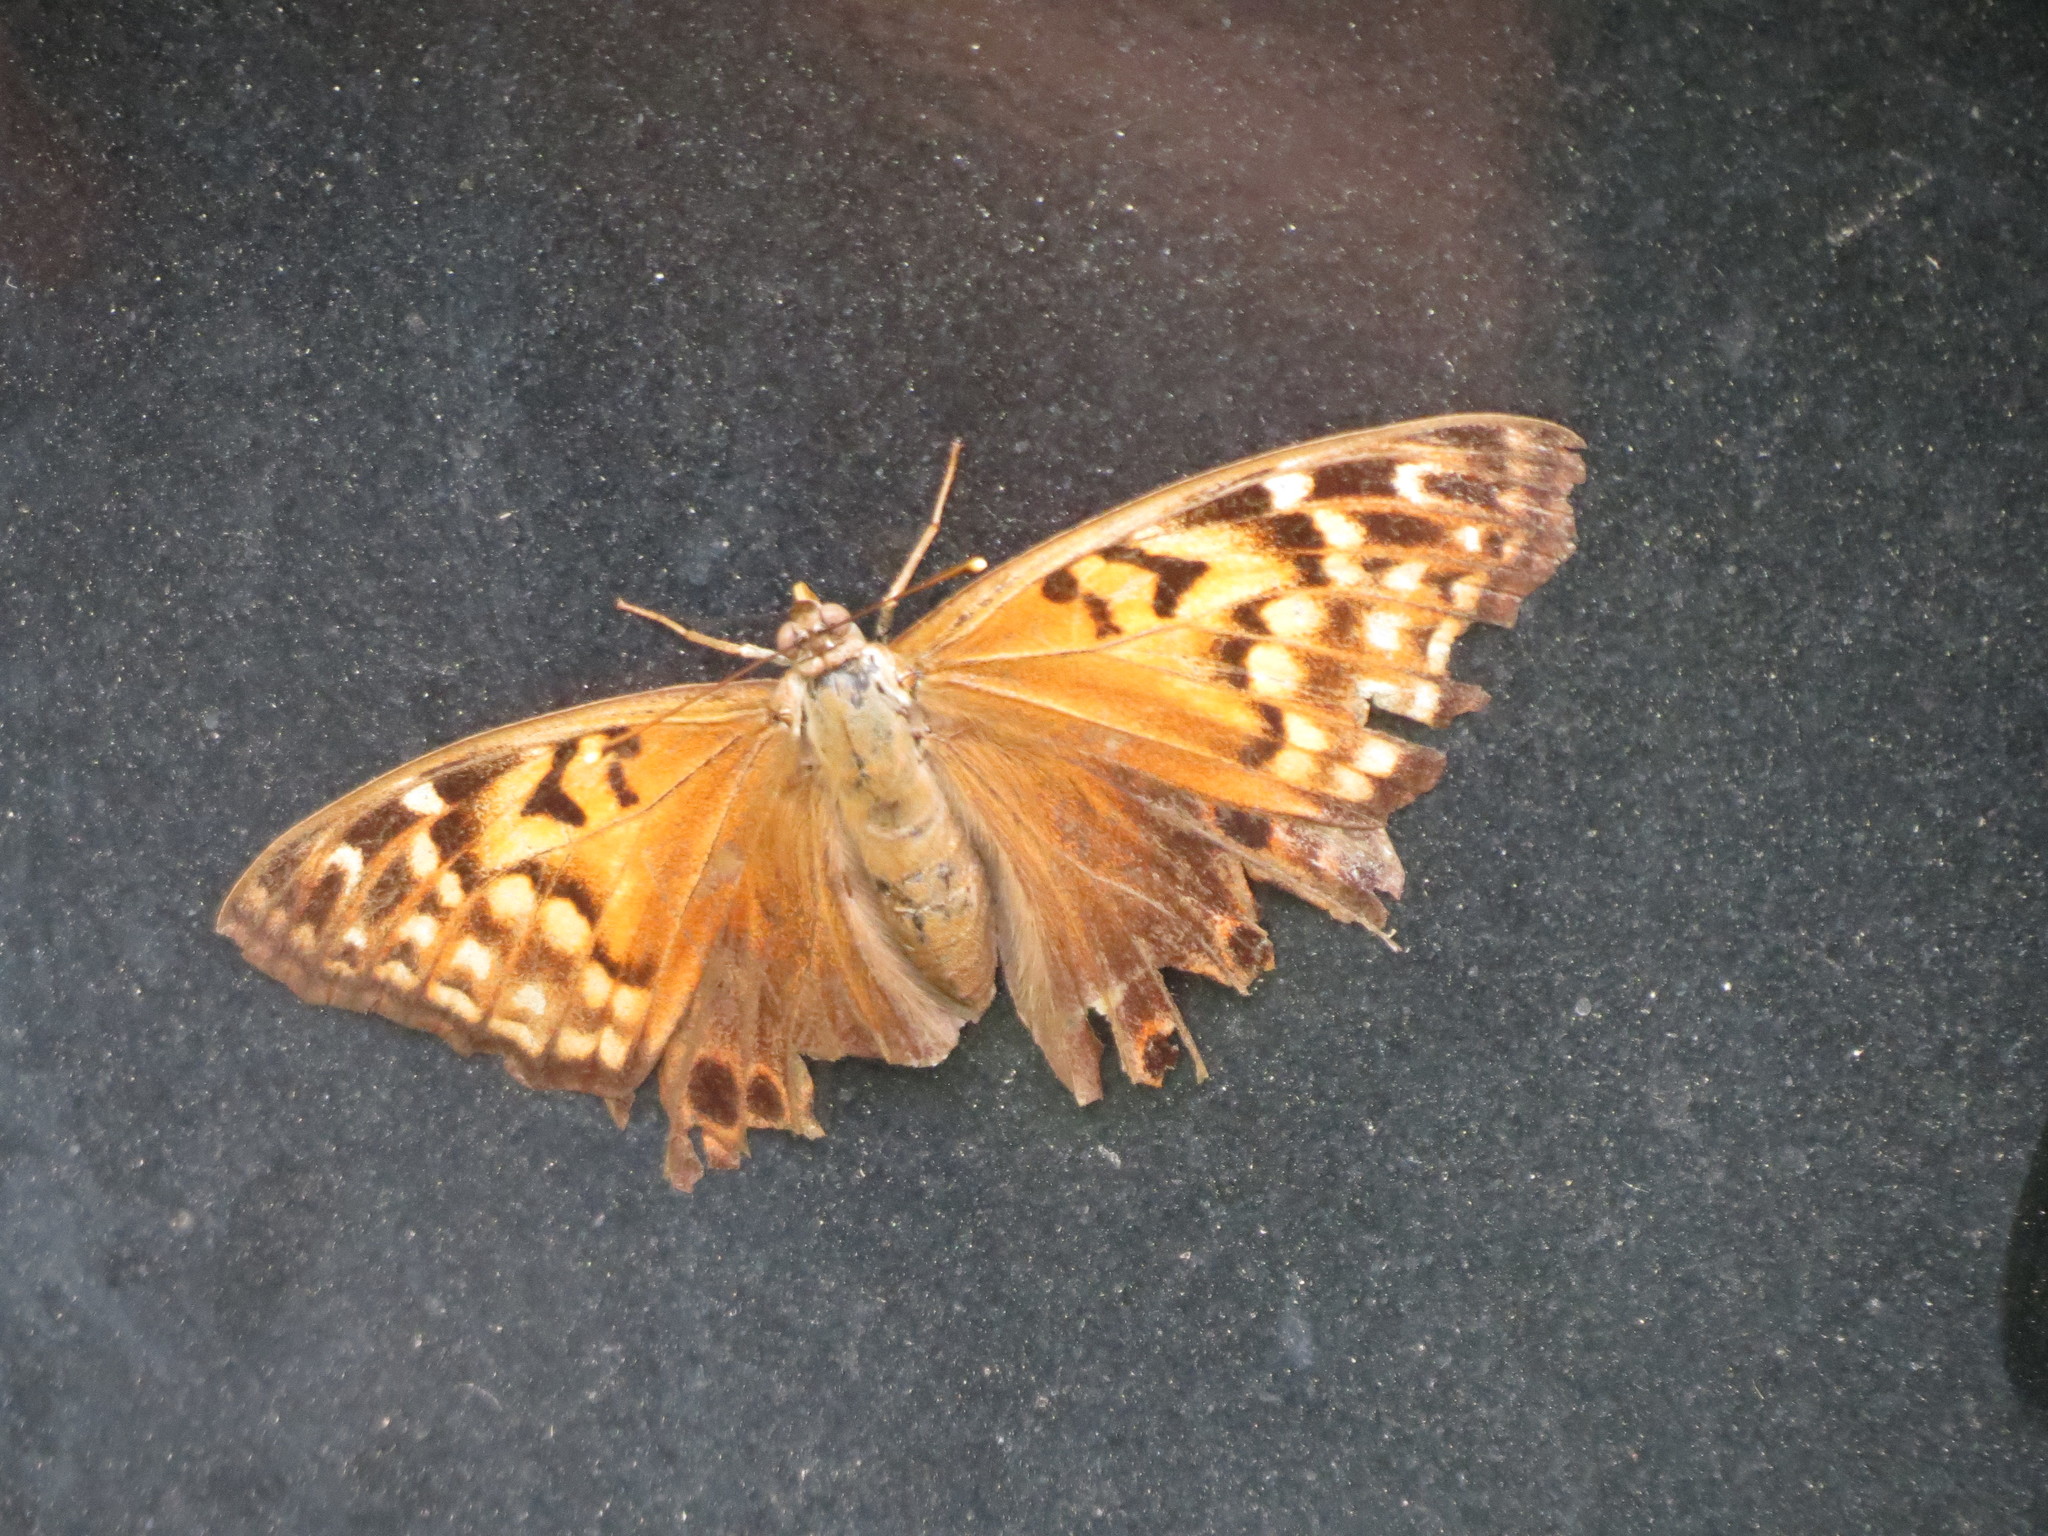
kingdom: Animalia
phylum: Arthropoda
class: Insecta
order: Lepidoptera
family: Nymphalidae
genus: Asterocampa
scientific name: Asterocampa clyton
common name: Tawny emperor
